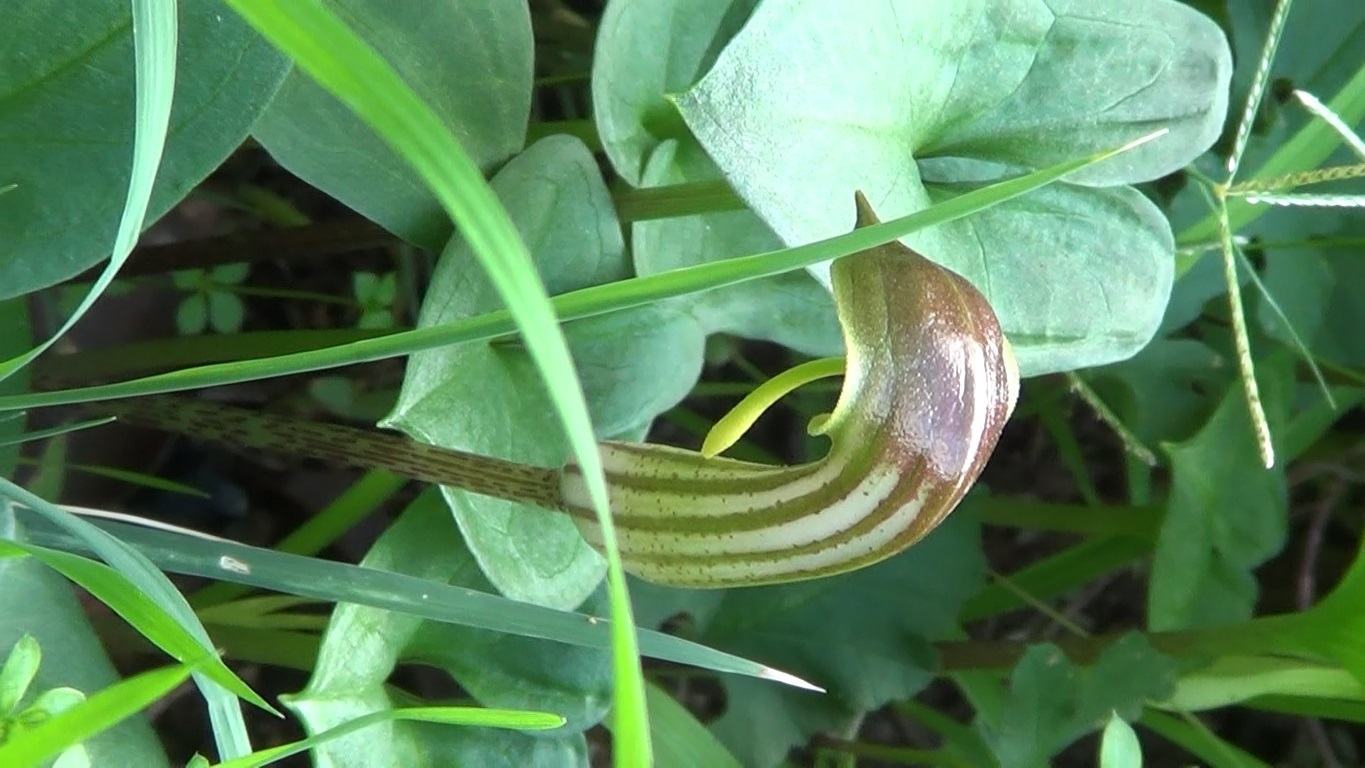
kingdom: Plantae
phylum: Tracheophyta
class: Liliopsida
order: Alismatales
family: Araceae
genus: Arisarum
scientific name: Arisarum vulgare
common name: Common arisarum
